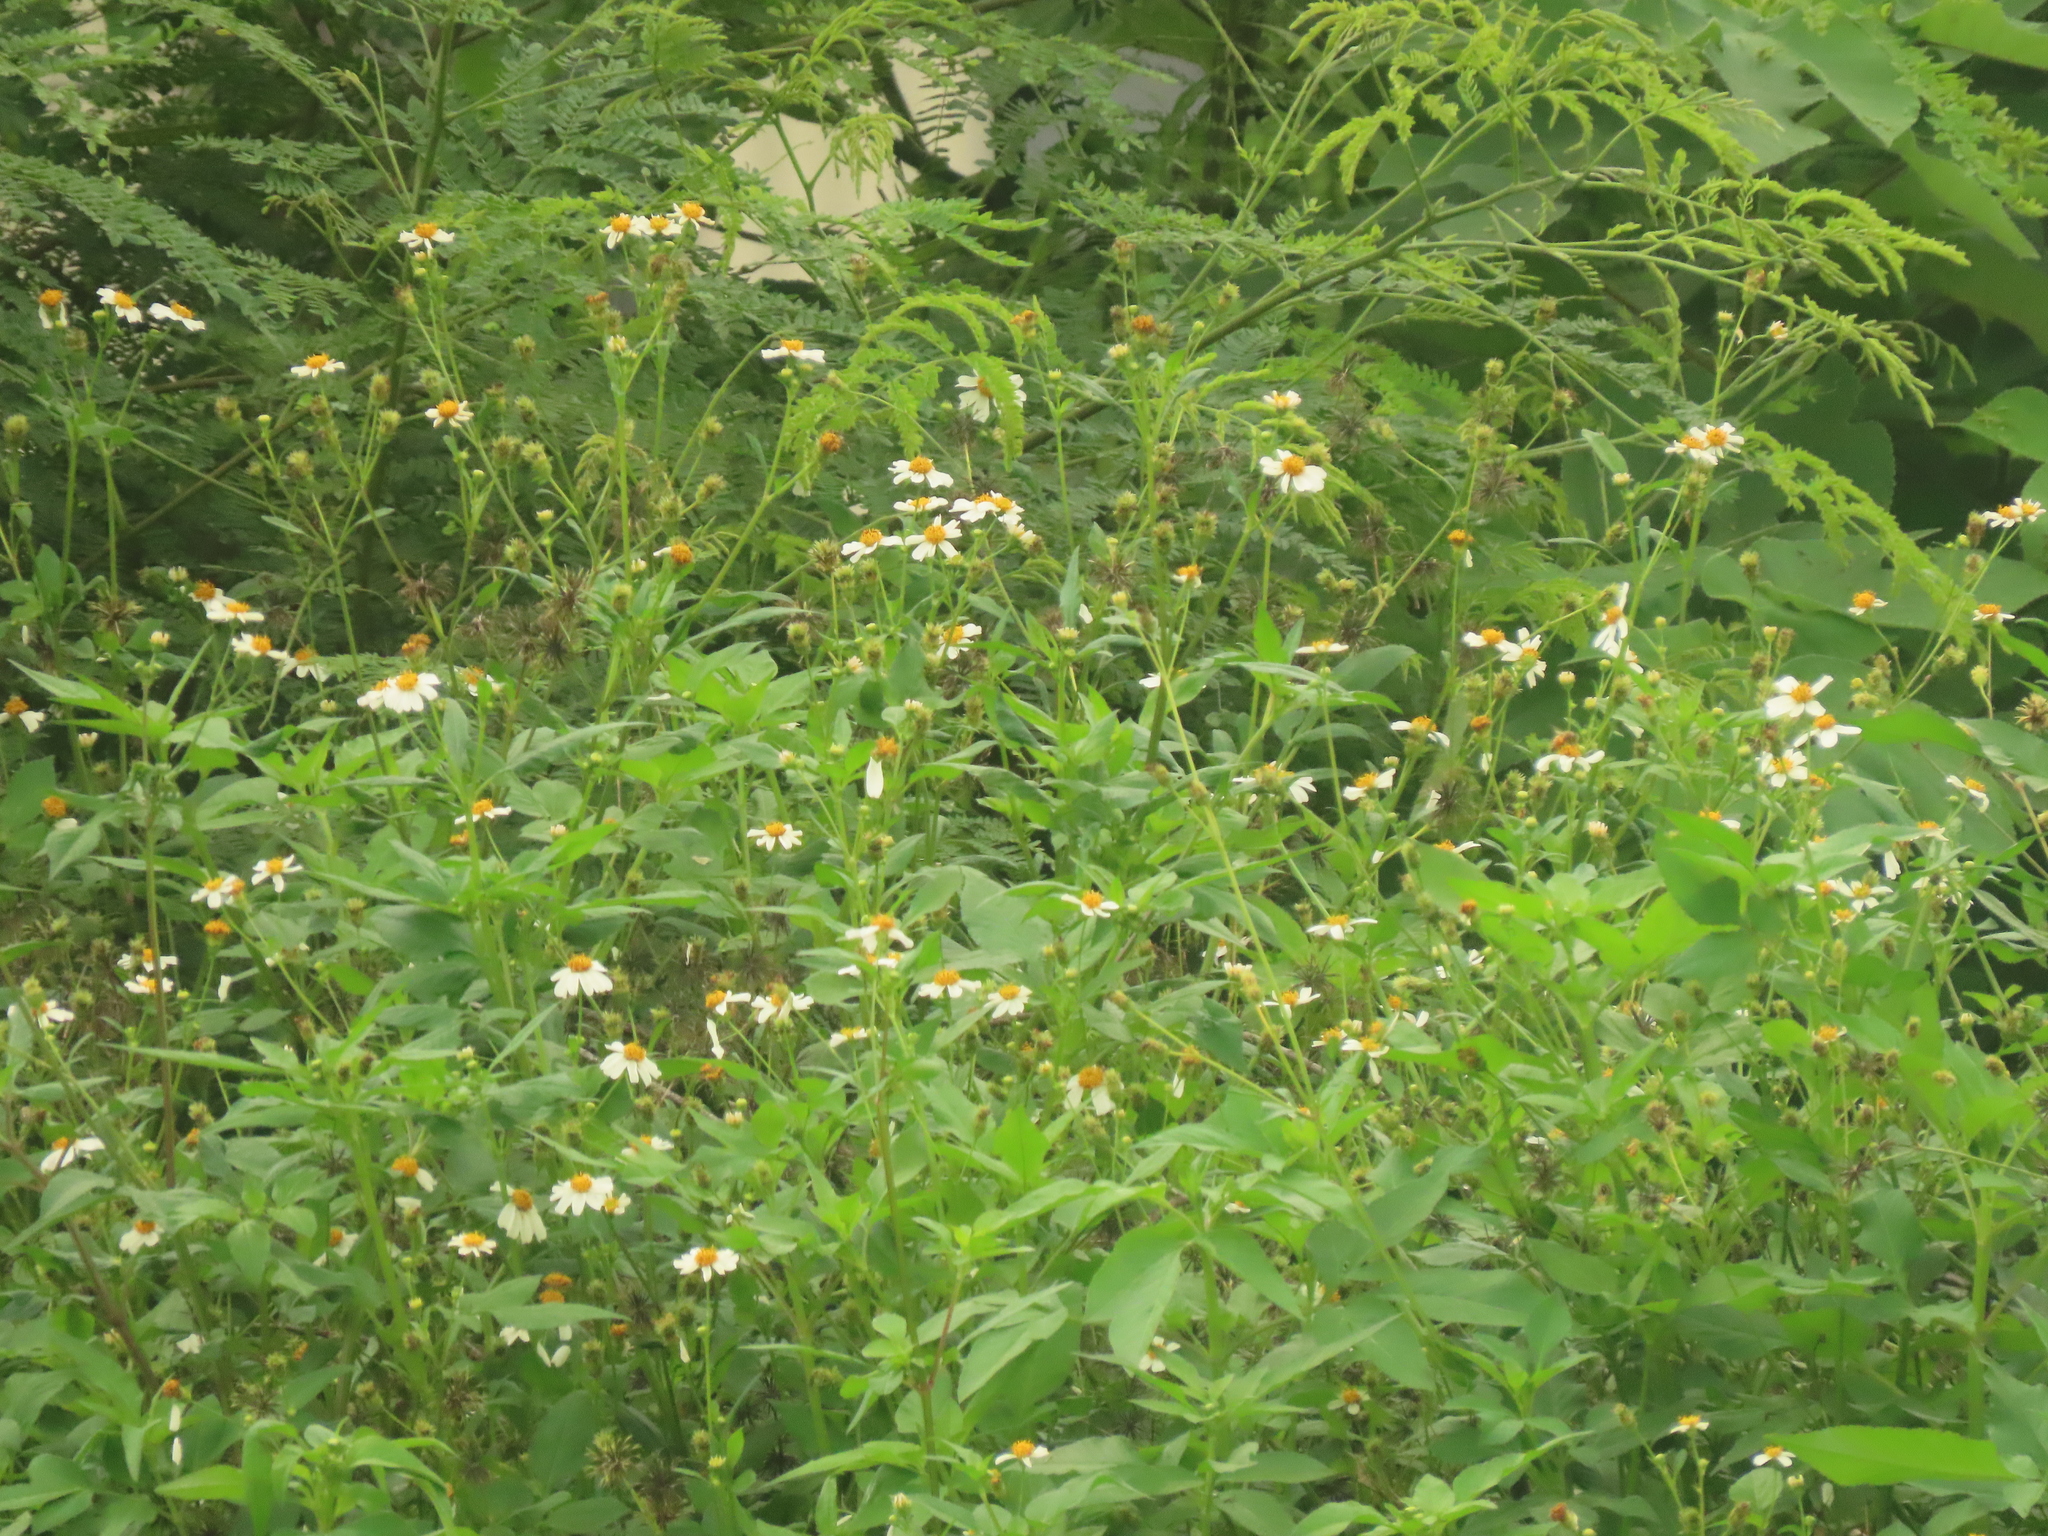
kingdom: Plantae
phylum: Tracheophyta
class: Magnoliopsida
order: Asterales
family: Asteraceae
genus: Bidens
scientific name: Bidens alba
